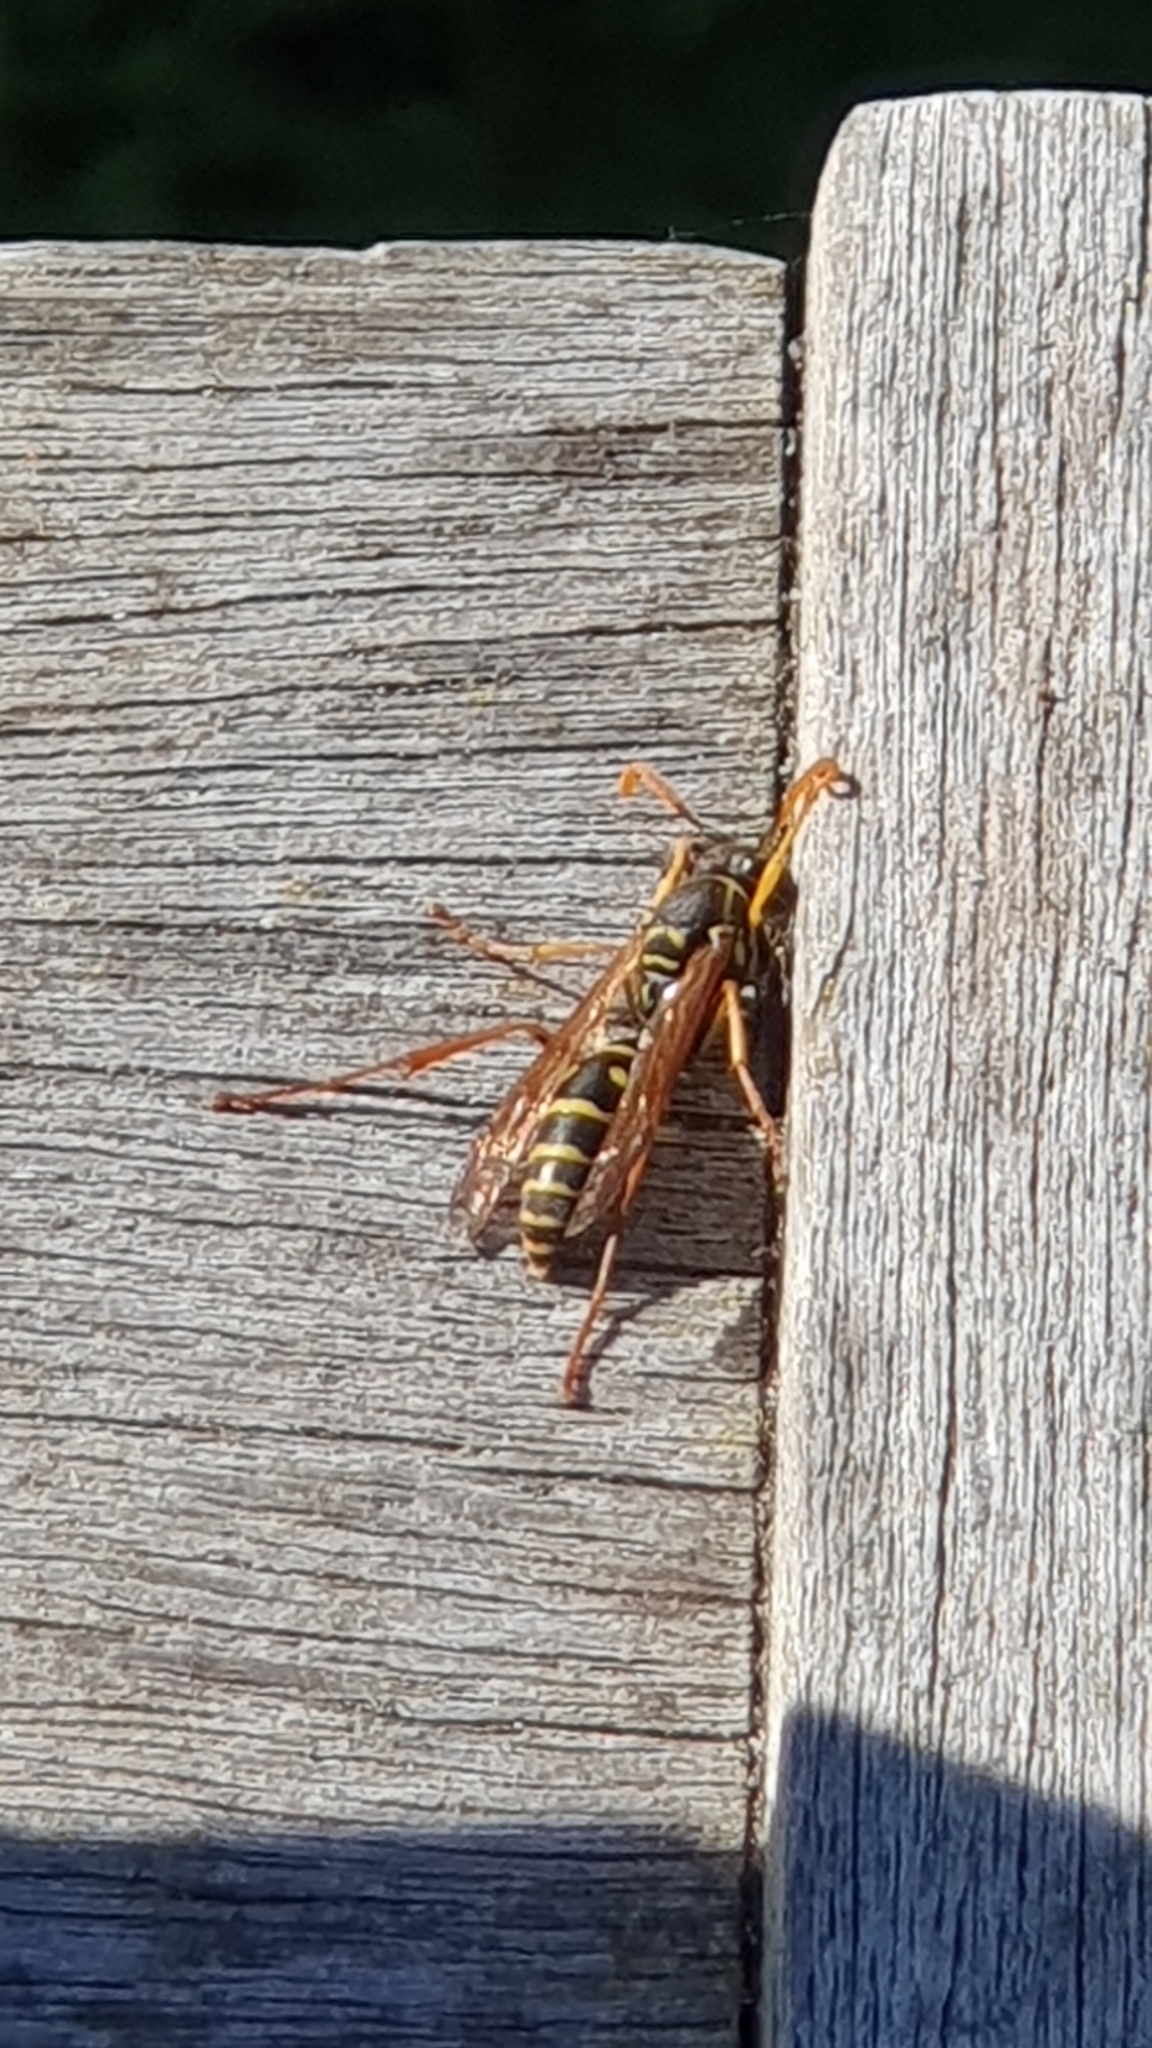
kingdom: Animalia
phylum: Arthropoda
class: Insecta
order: Hymenoptera
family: Eumenidae
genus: Polistes
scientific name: Polistes chinensis
